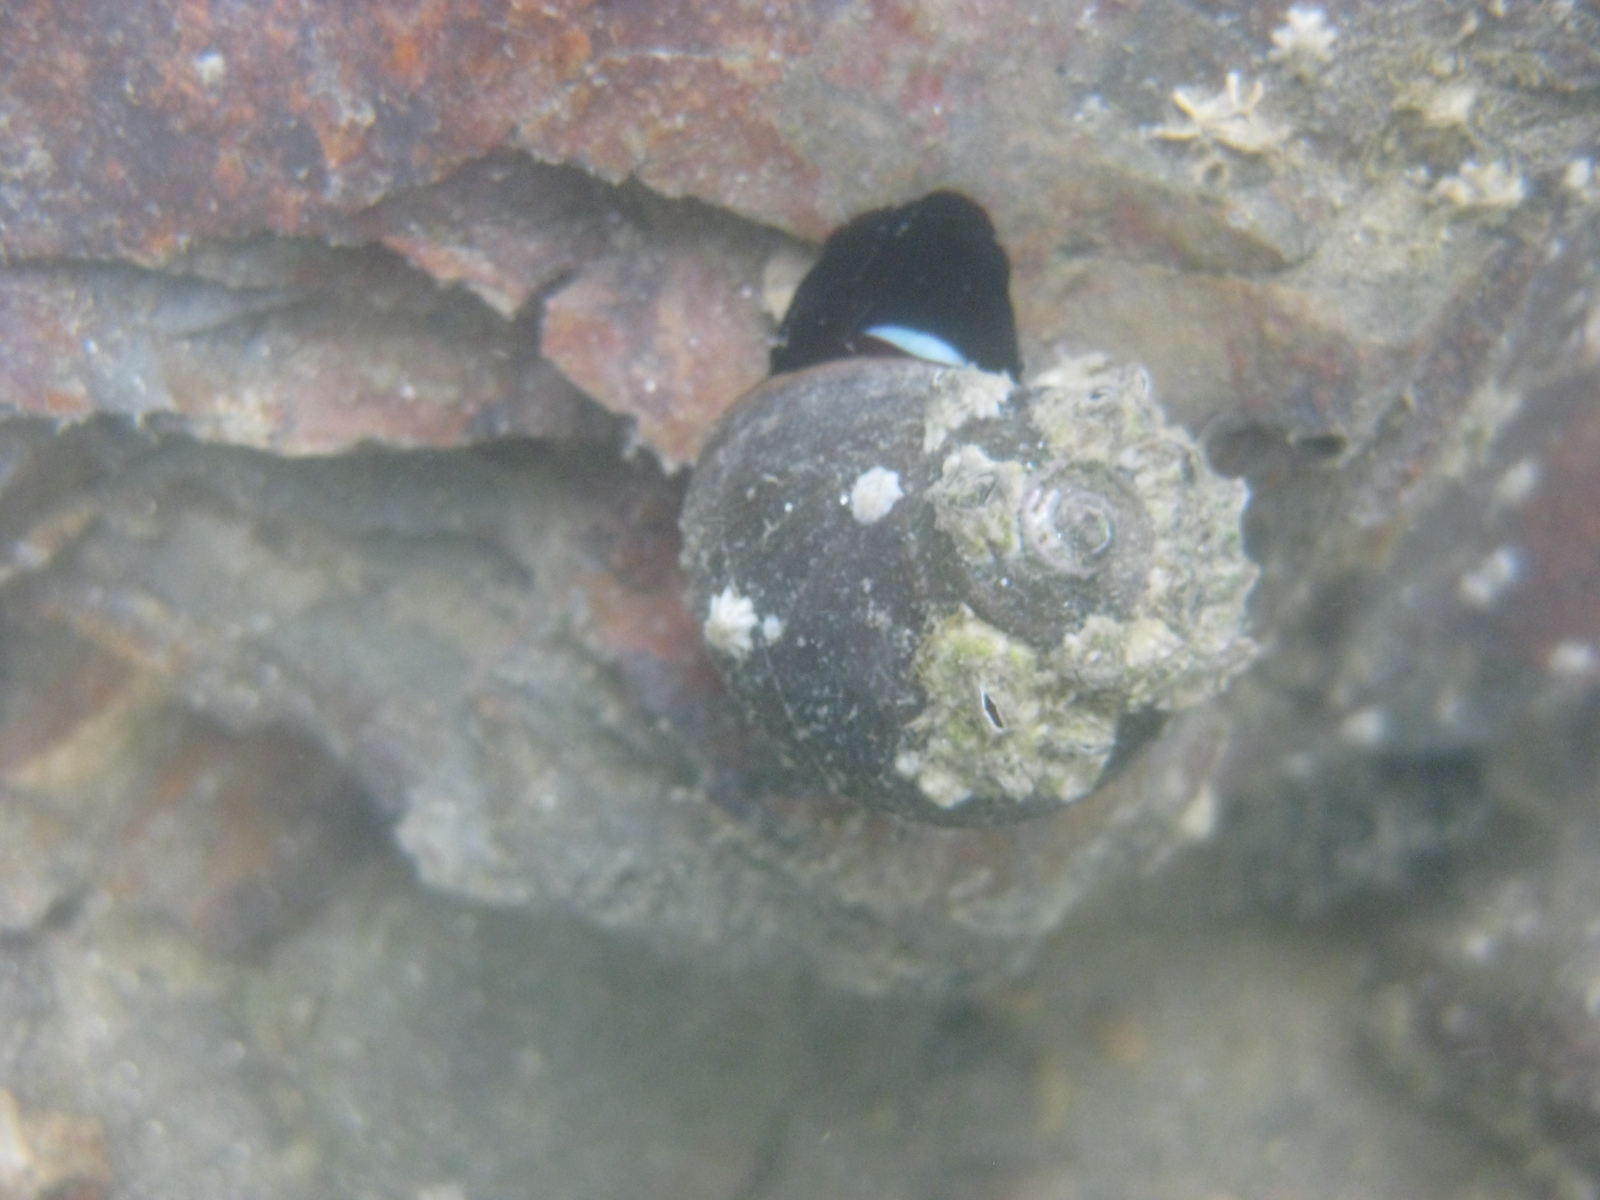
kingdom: Animalia
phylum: Mollusca
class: Gastropoda
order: Trochida
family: Turbinidae
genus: Lunella
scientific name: Lunella smaragda
